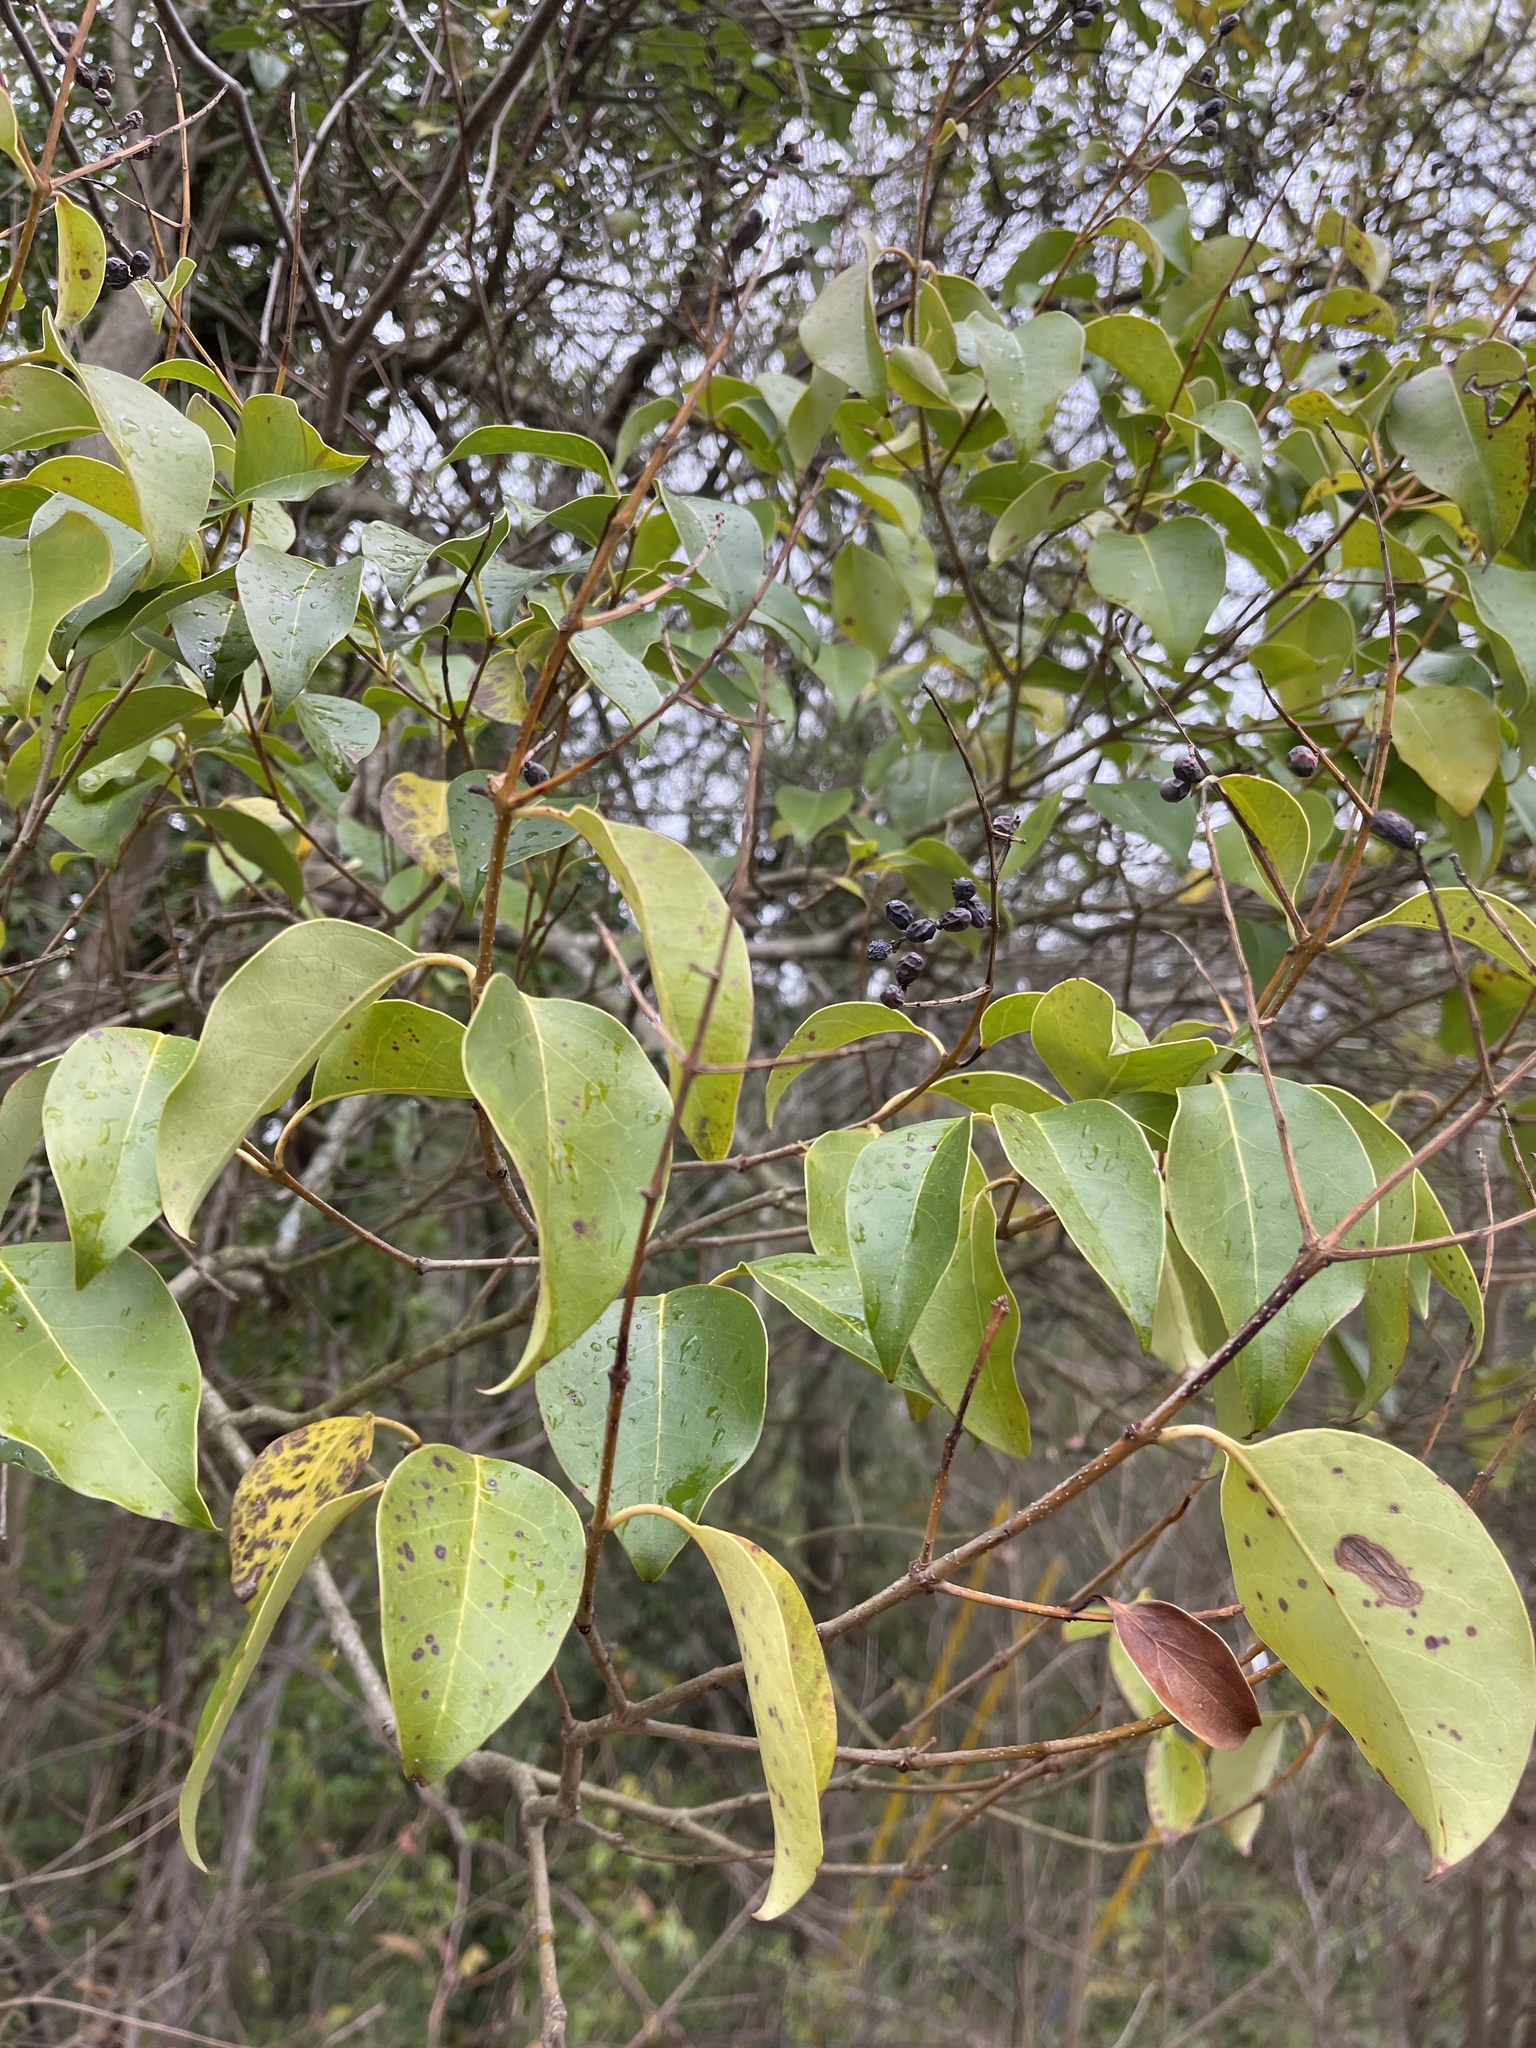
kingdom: Plantae
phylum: Tracheophyta
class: Magnoliopsida
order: Lamiales
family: Oleaceae
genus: Ligustrum
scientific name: Ligustrum lucidum
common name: Glossy privet
